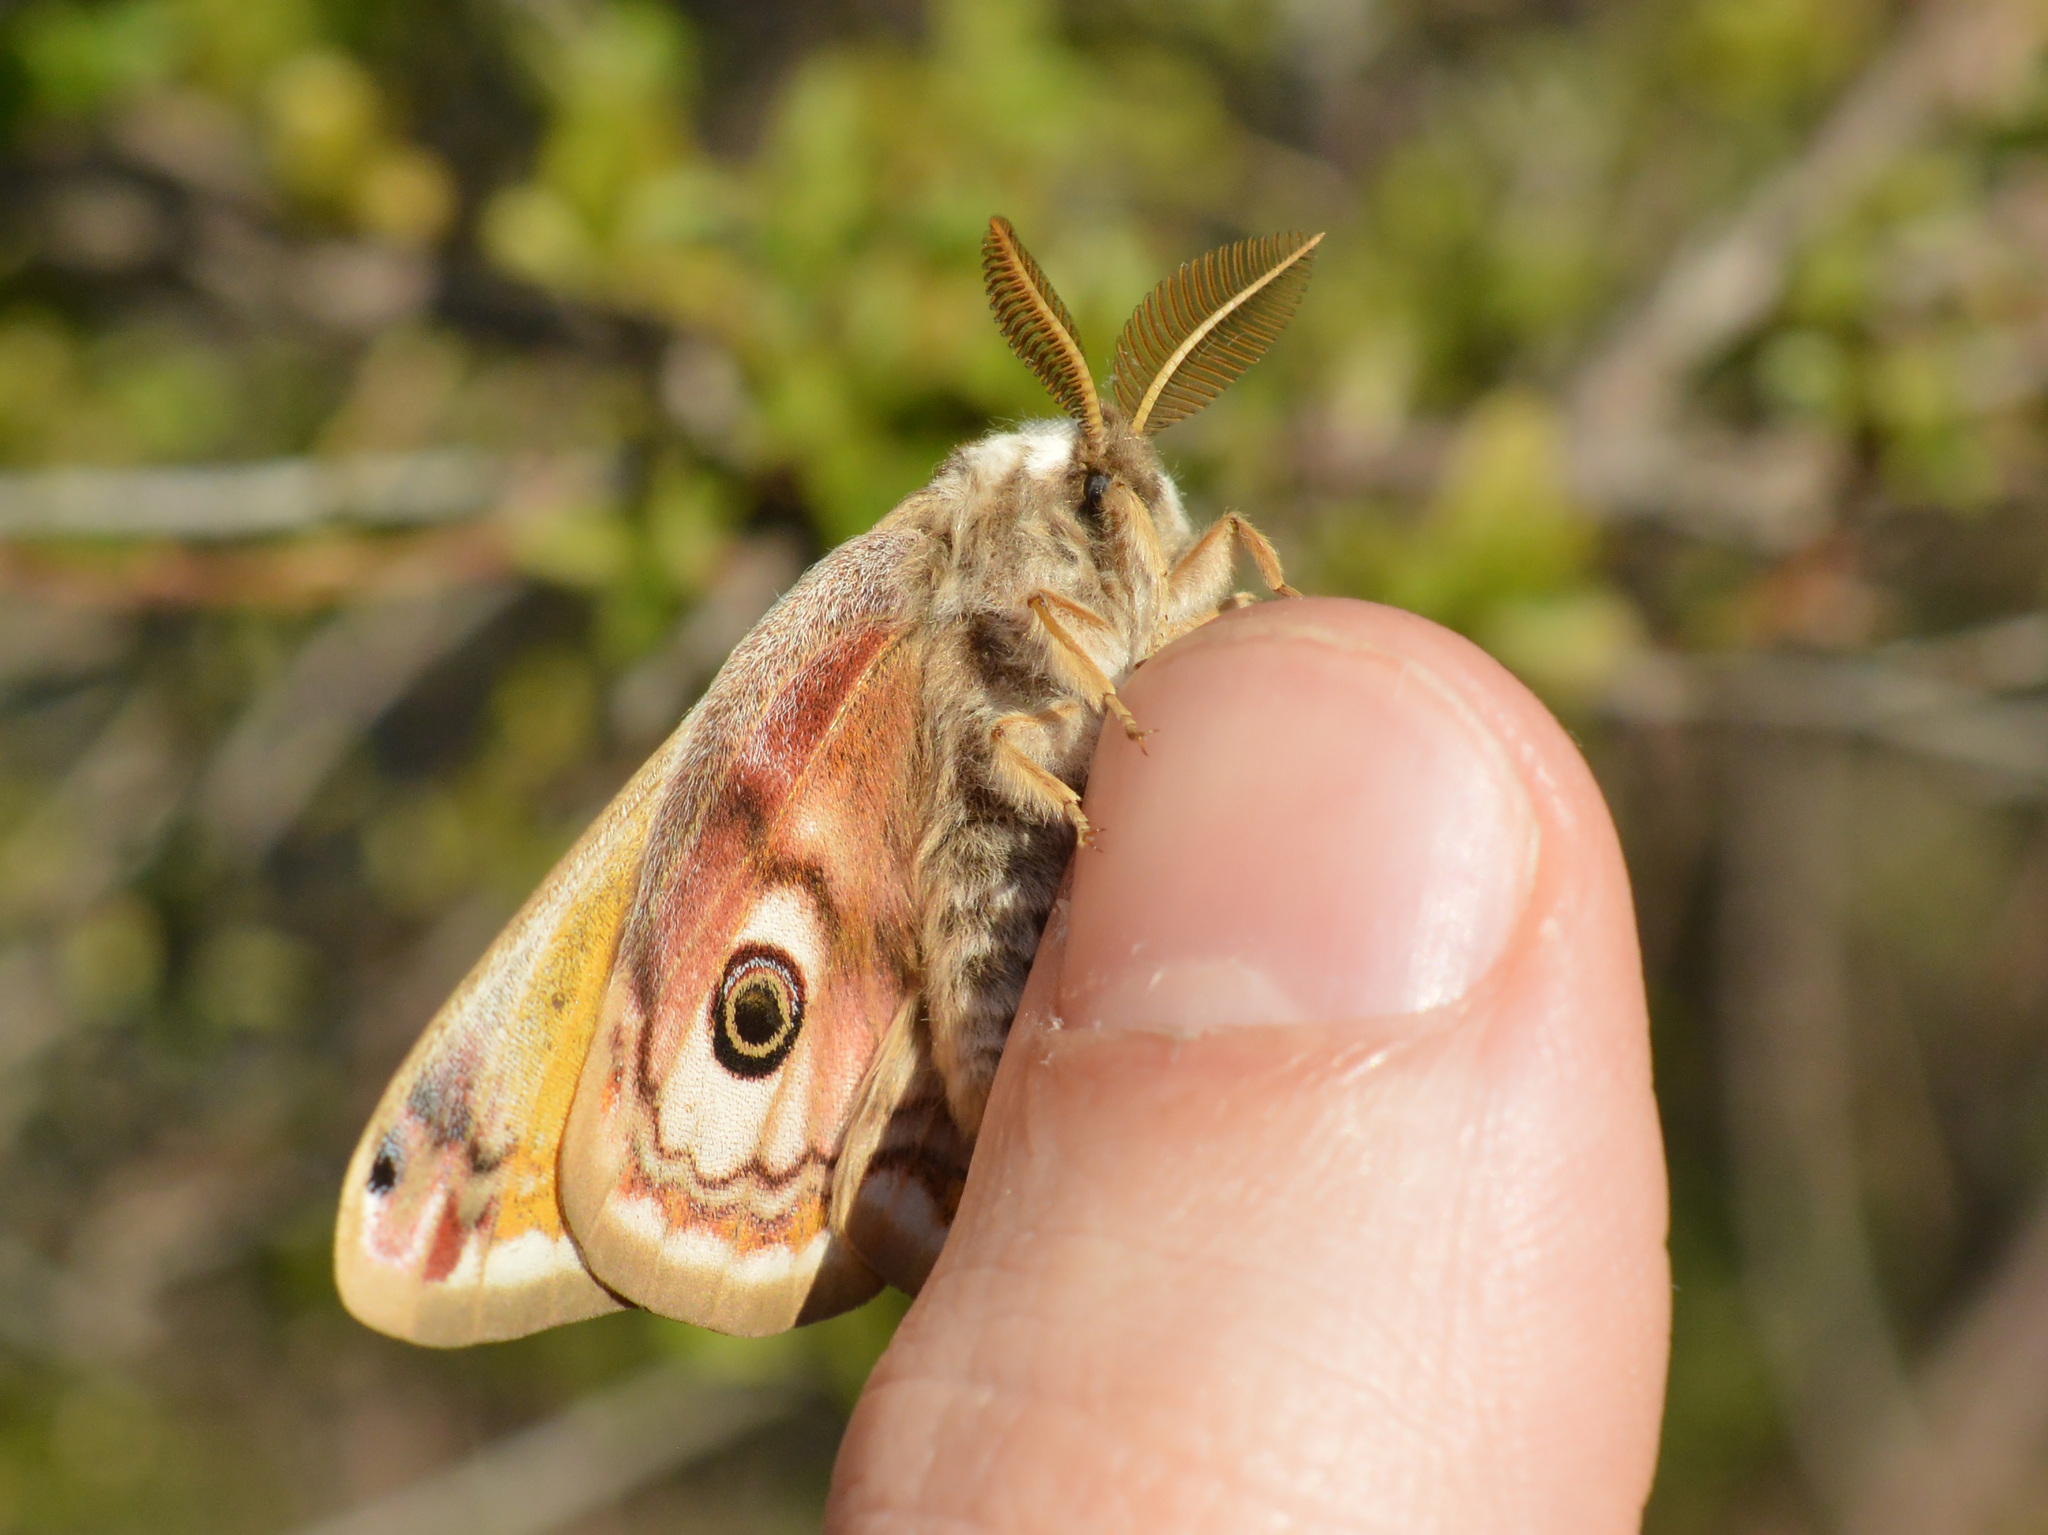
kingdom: Animalia
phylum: Arthropoda
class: Insecta
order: Lepidoptera
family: Saturniidae
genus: Saturnia
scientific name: Saturnia pavoniella
